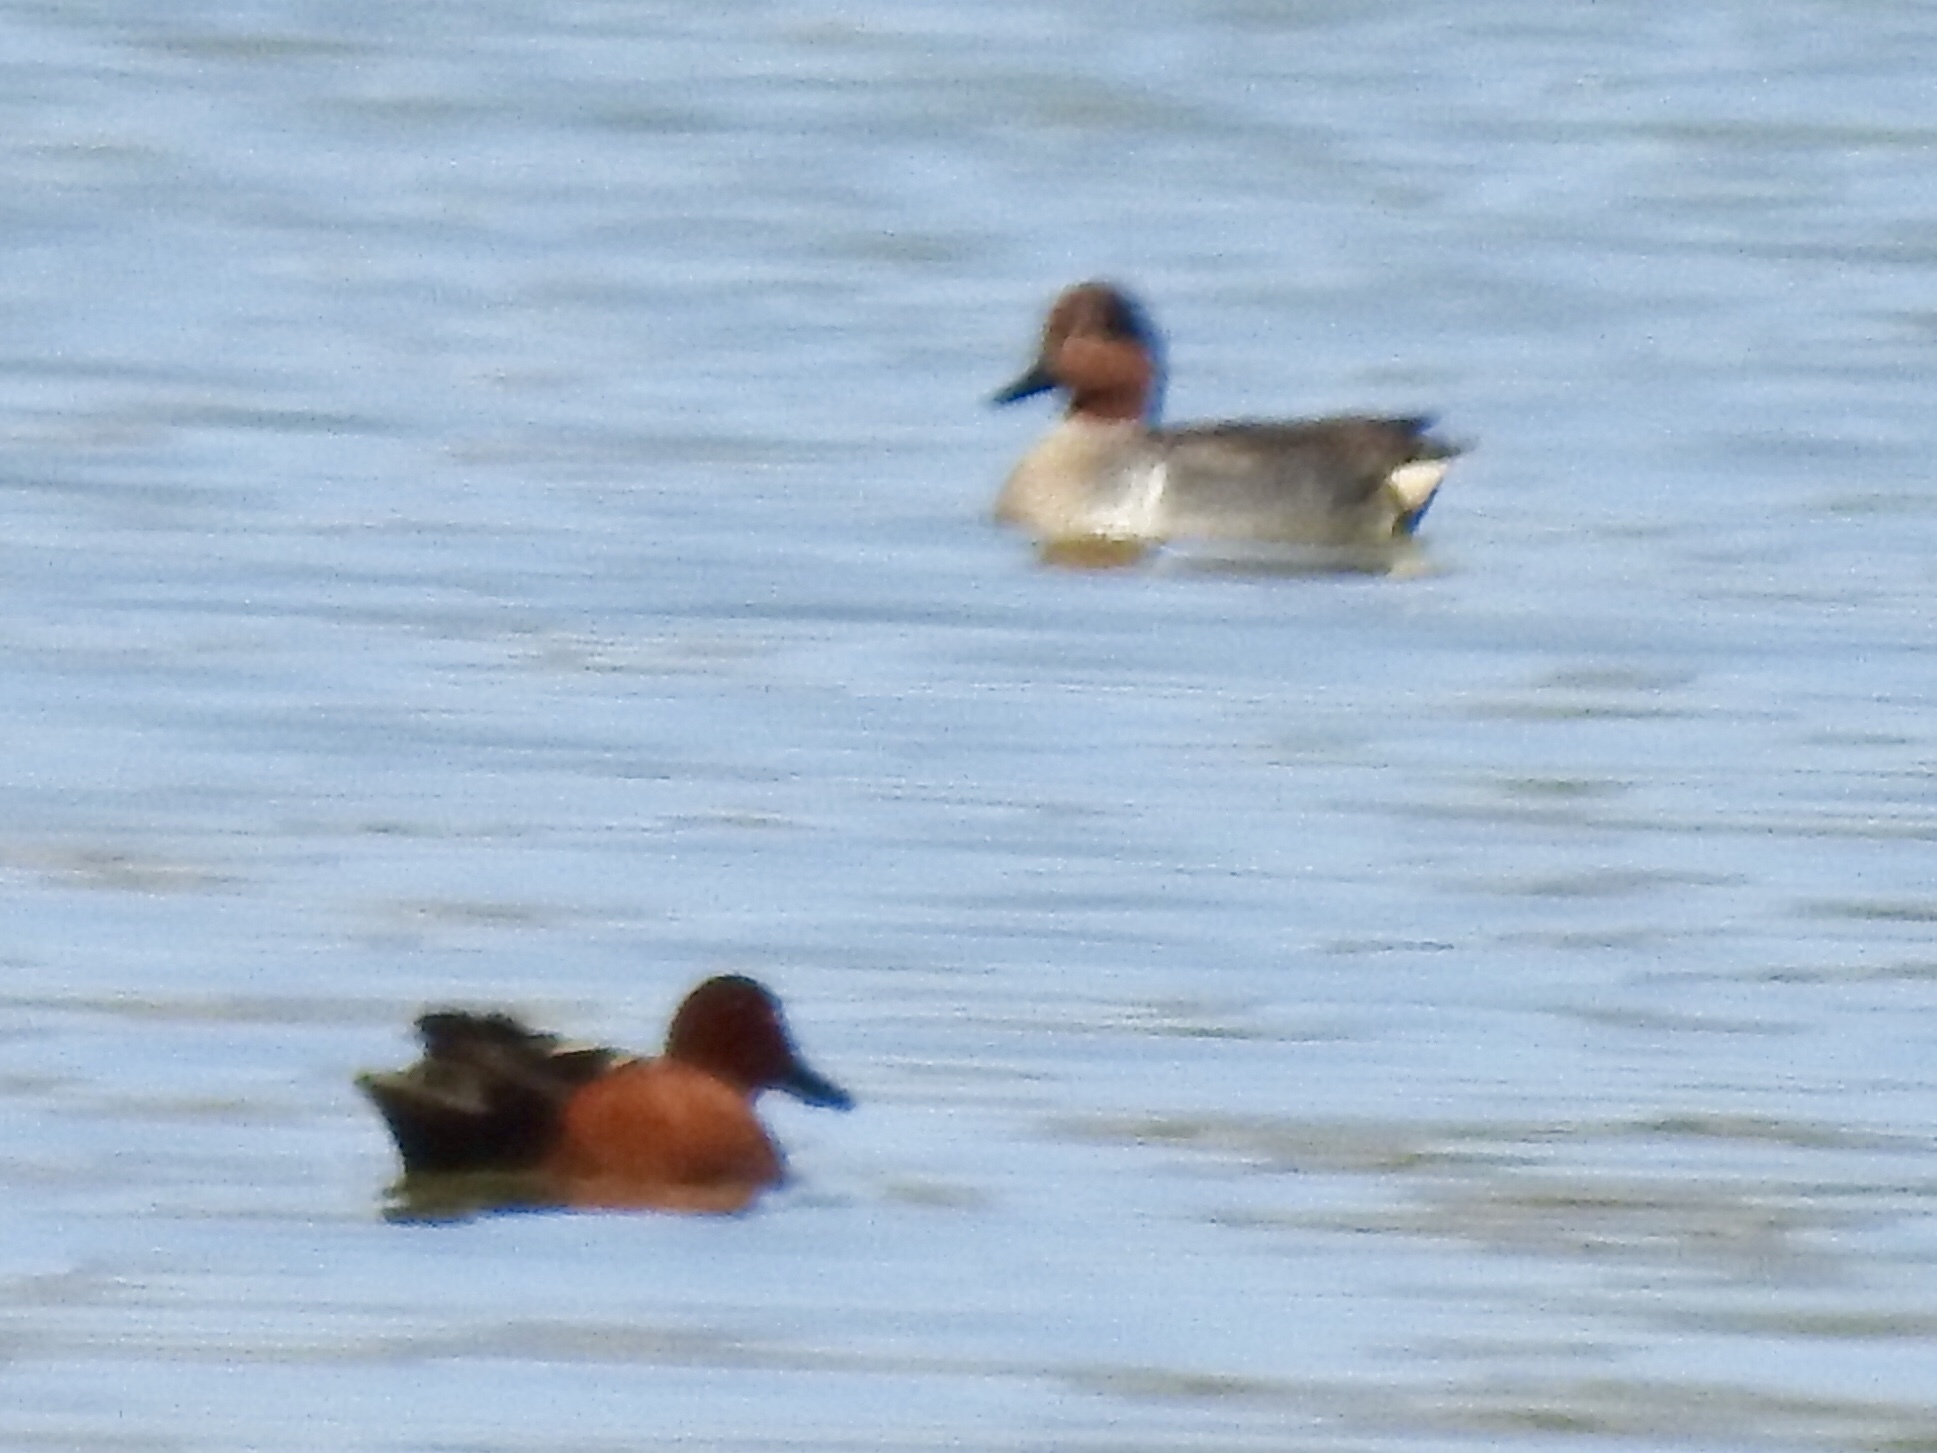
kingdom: Animalia
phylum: Chordata
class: Aves
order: Anseriformes
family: Anatidae
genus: Anas
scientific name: Anas crecca
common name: Eurasian teal
